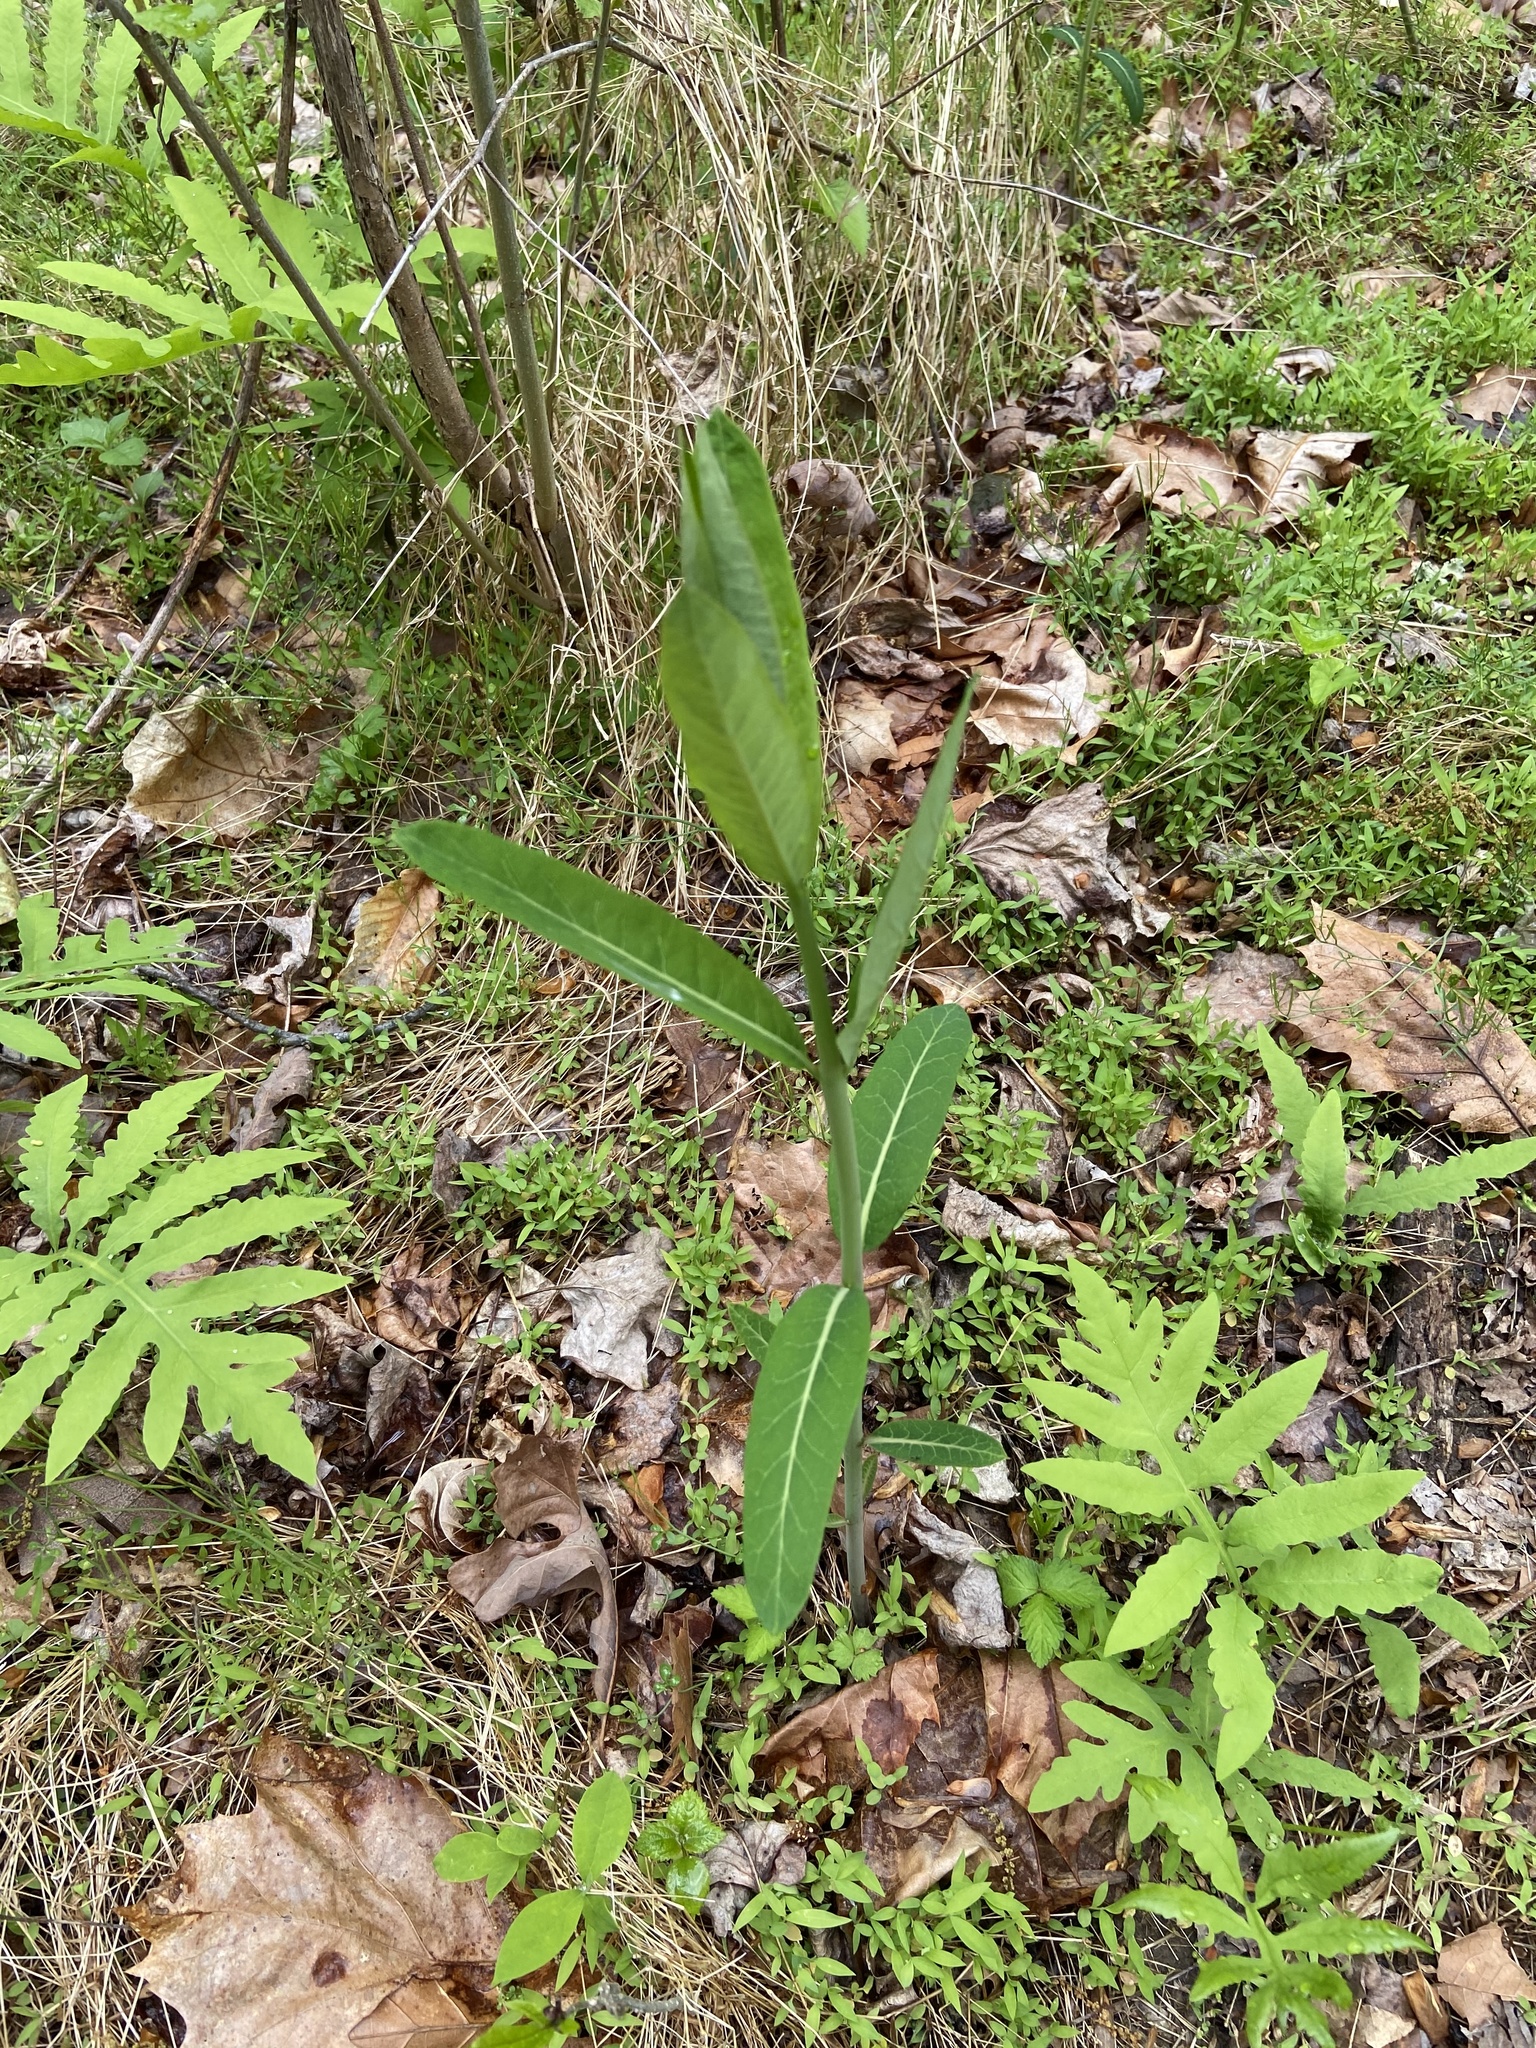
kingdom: Plantae
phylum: Tracheophyta
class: Magnoliopsida
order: Gentianales
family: Apocynaceae
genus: Apocynum
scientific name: Apocynum cannabinum
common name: Hemp dogbane
